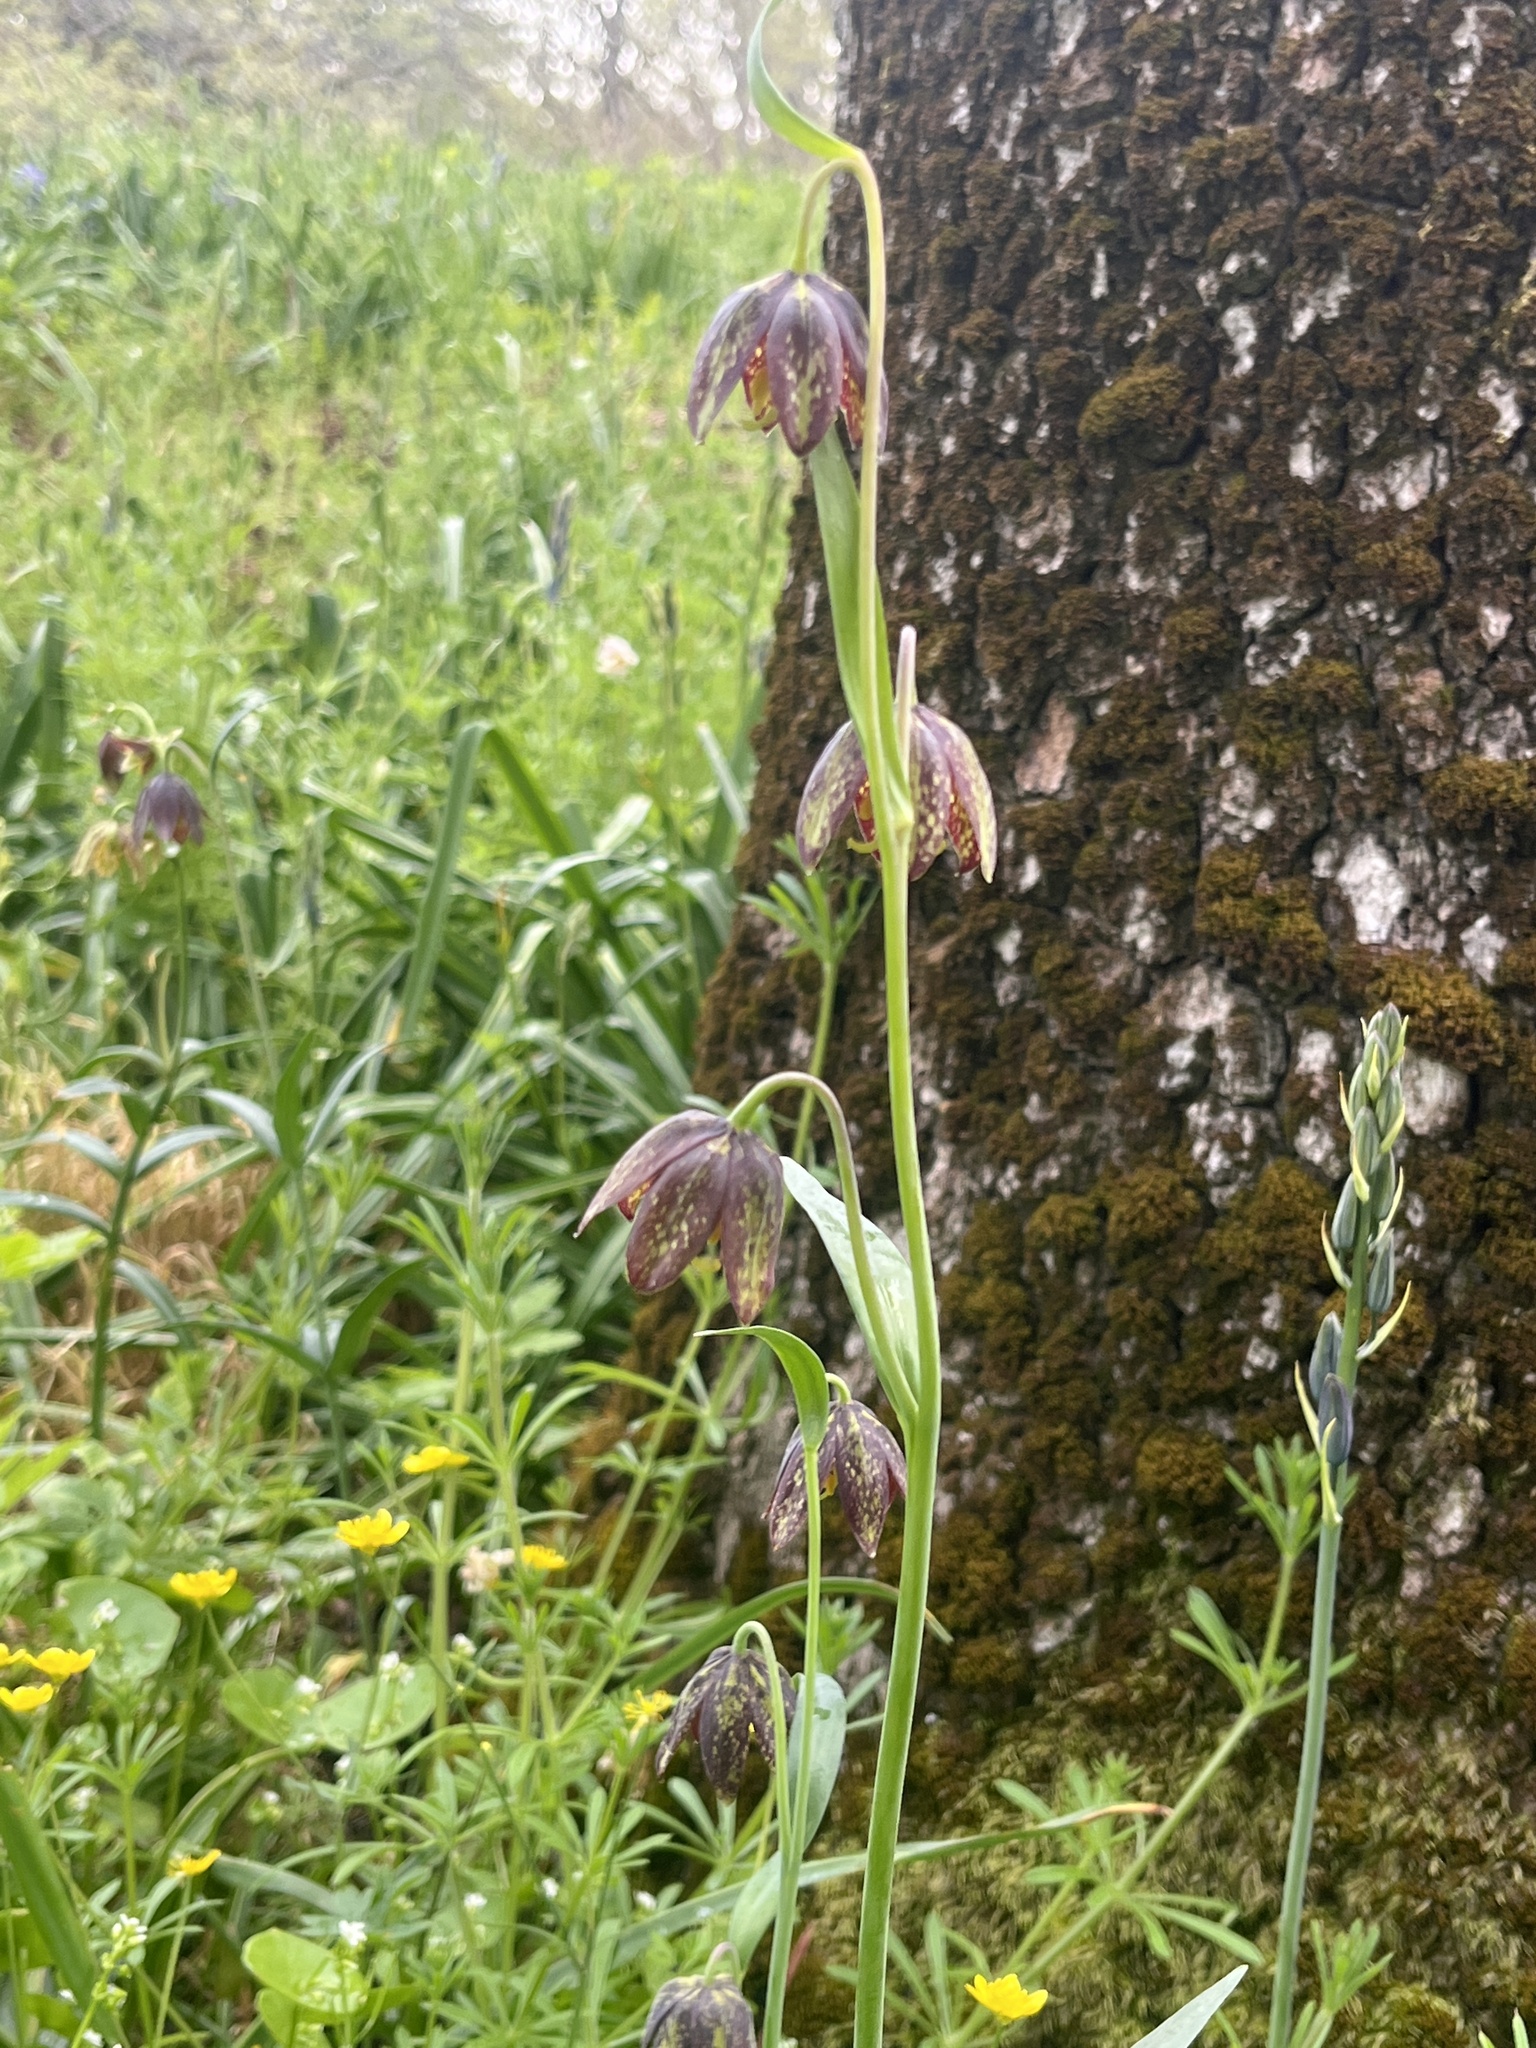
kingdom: Plantae
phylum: Tracheophyta
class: Liliopsida
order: Liliales
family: Liliaceae
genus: Fritillaria
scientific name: Fritillaria affinis
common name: Ojai fritillary
